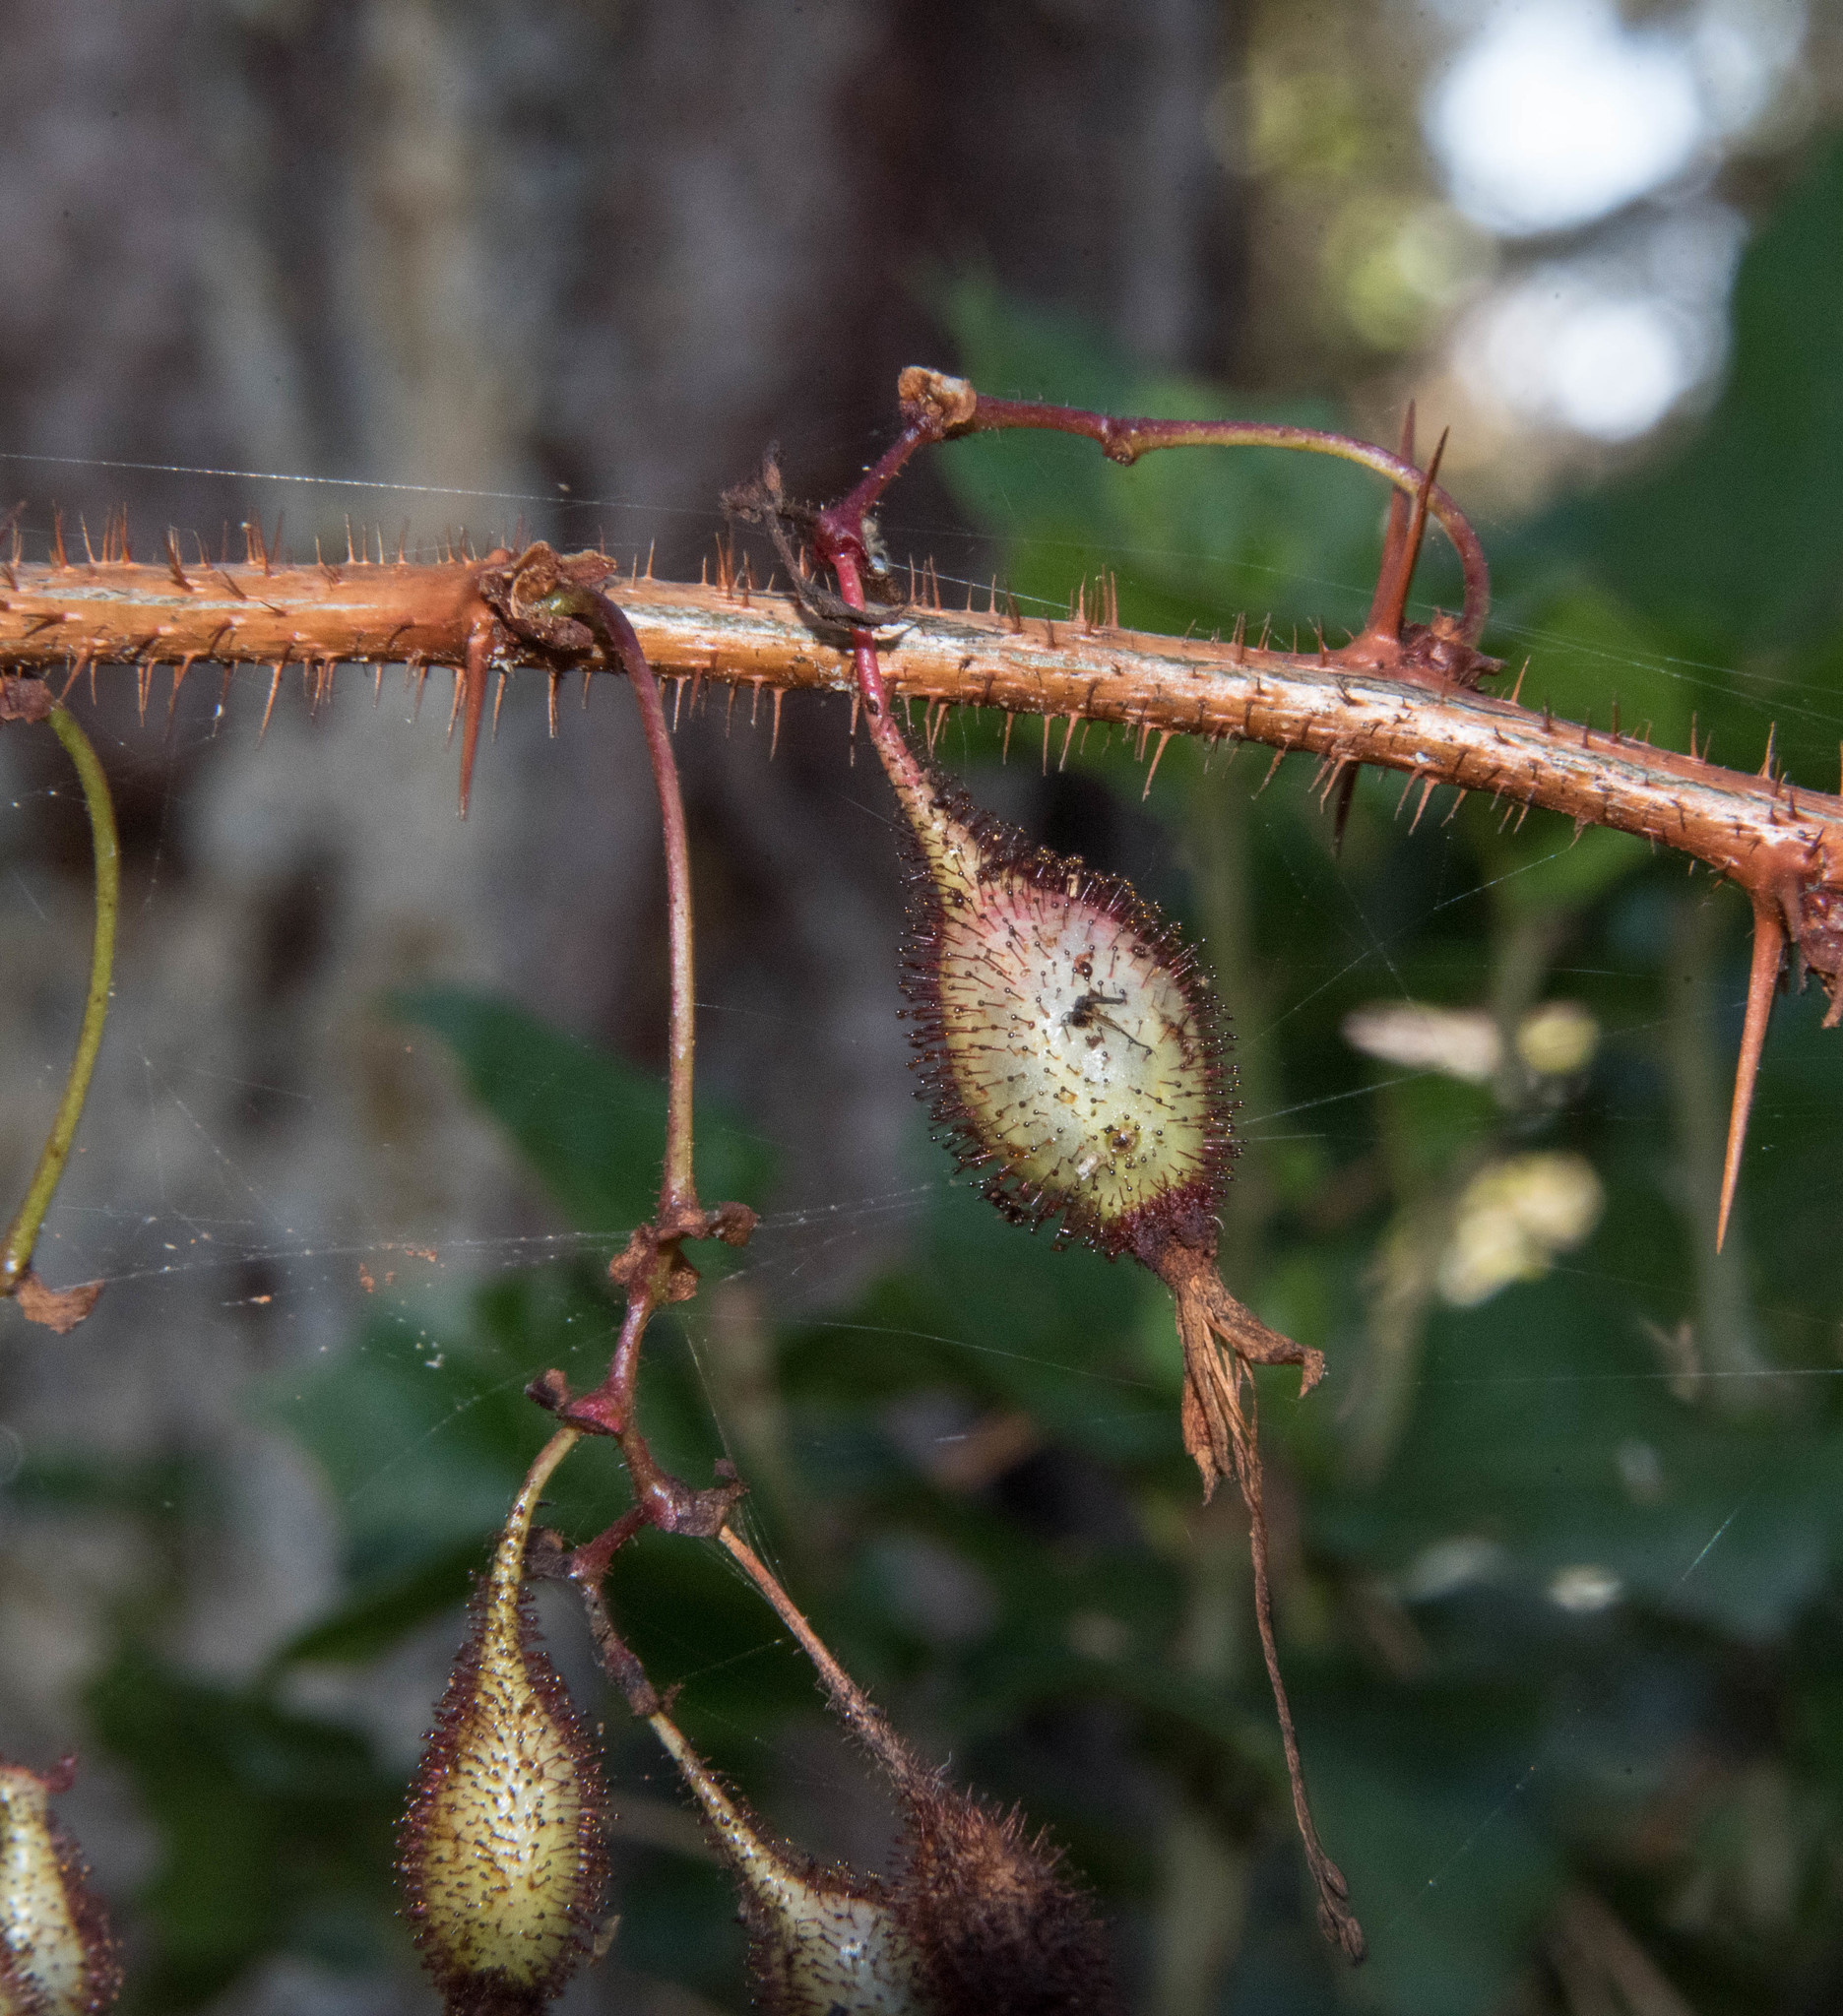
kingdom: Plantae
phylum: Tracheophyta
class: Magnoliopsida
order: Saxifragales
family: Grossulariaceae
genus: Ribes
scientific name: Ribes speciosum
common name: Fuchsia-flower gooseberry
